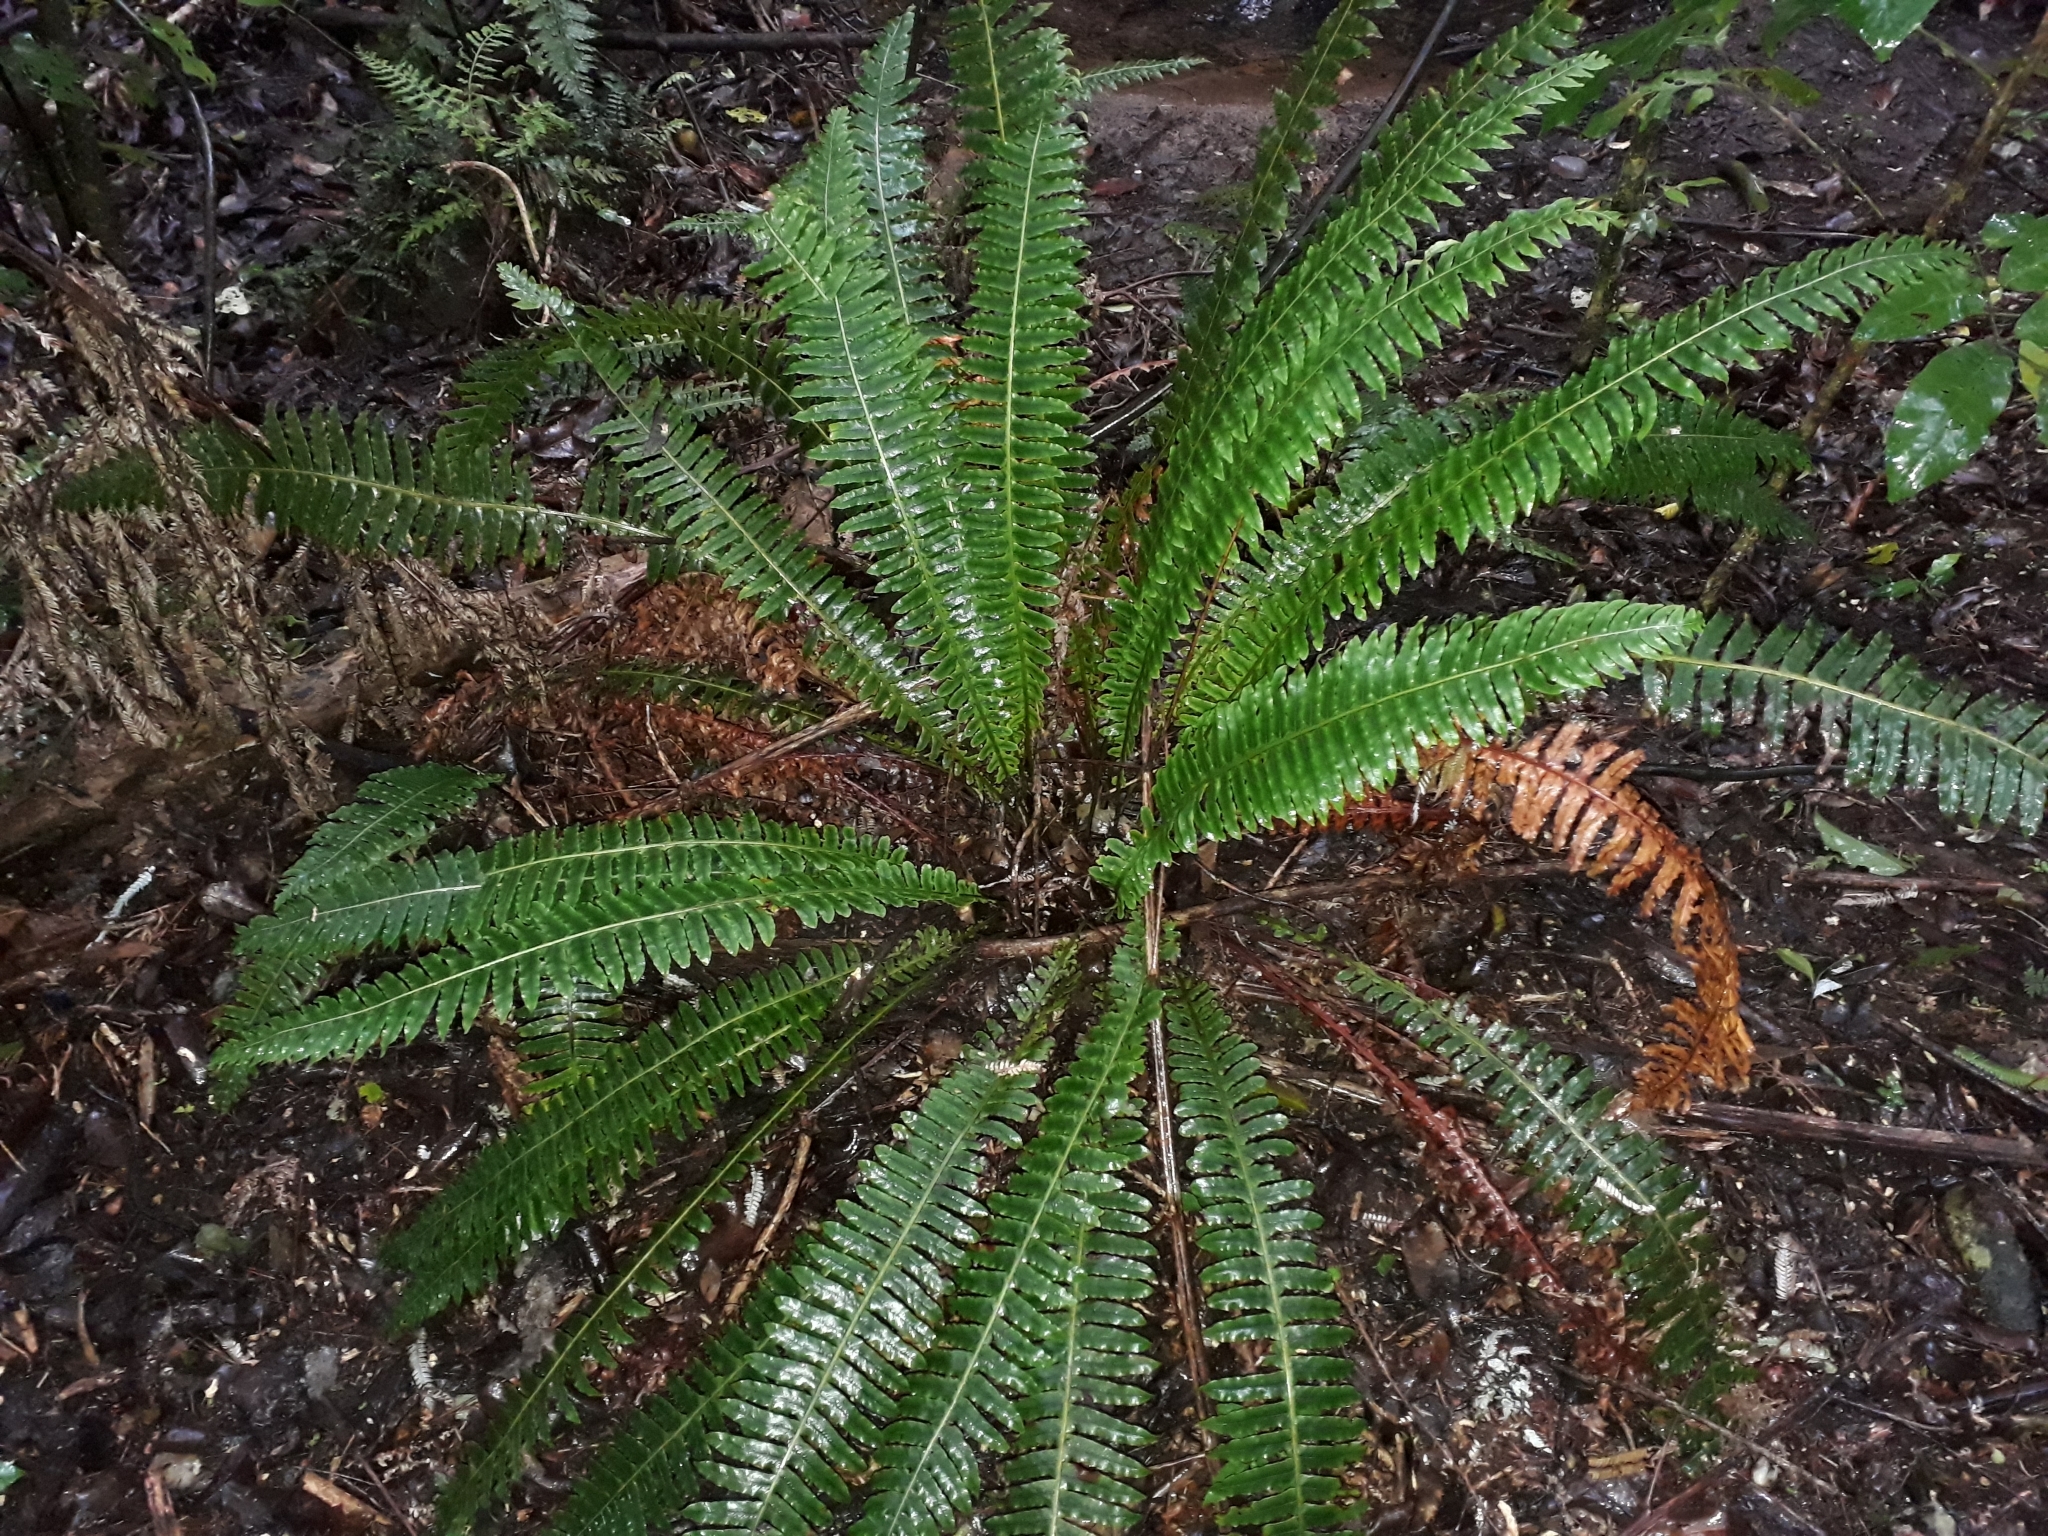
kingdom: Plantae
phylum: Tracheophyta
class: Polypodiopsida
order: Polypodiales
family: Blechnaceae
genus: Lomaria
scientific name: Lomaria discolor
